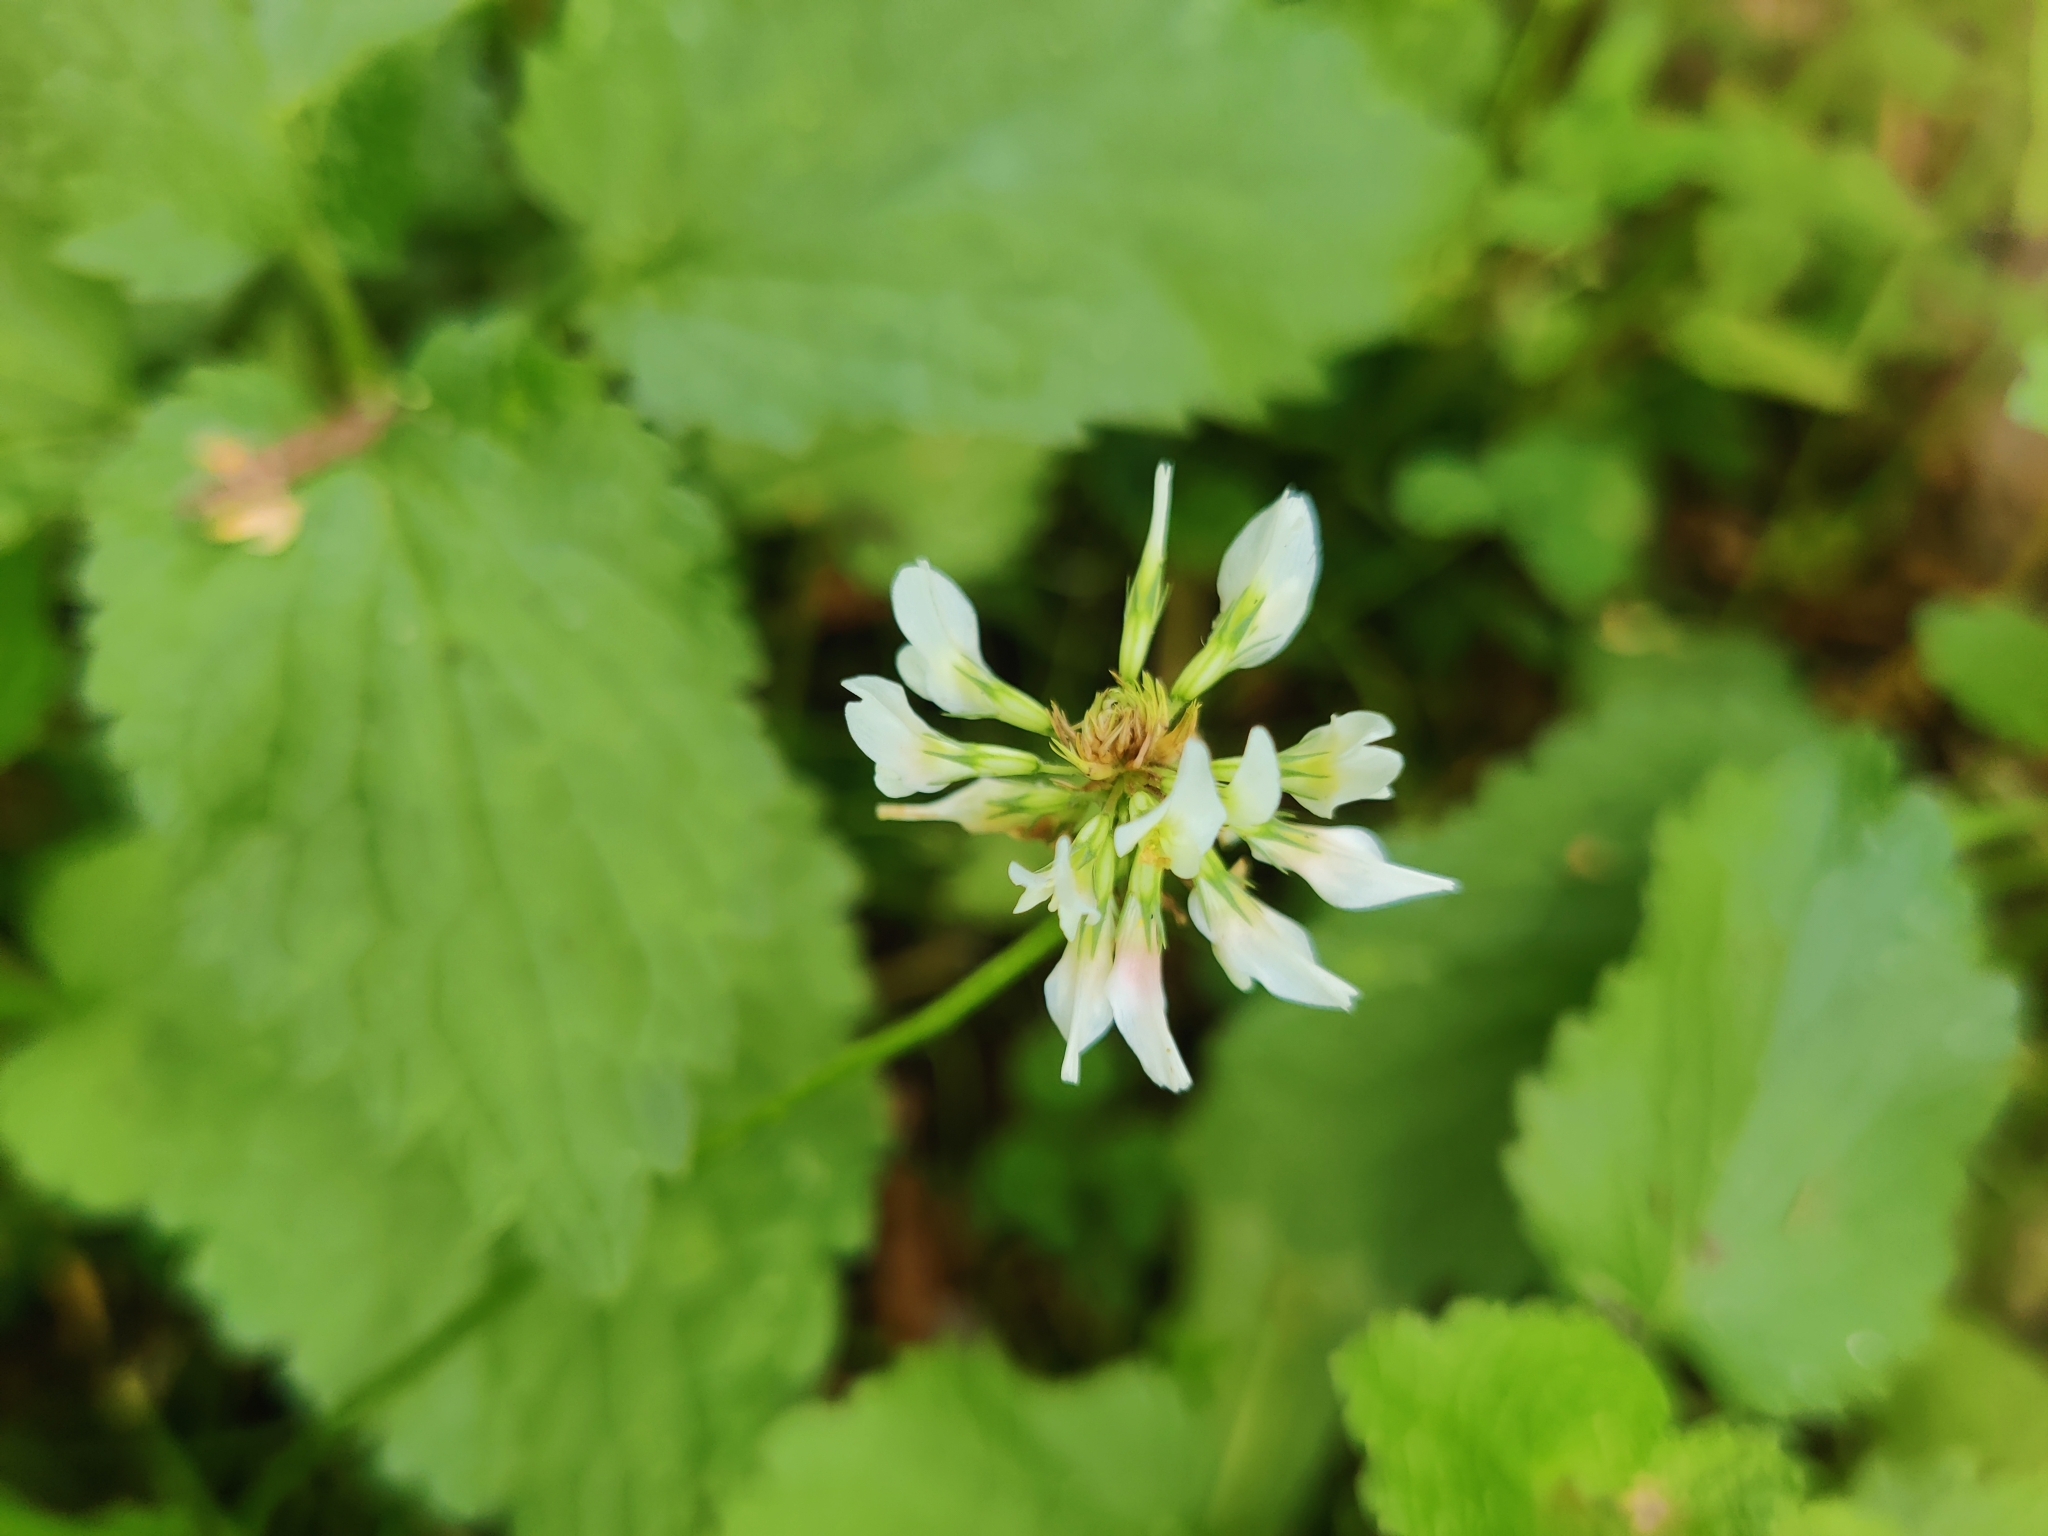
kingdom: Plantae
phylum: Tracheophyta
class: Magnoliopsida
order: Fabales
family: Fabaceae
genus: Trifolium
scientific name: Trifolium repens
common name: White clover
